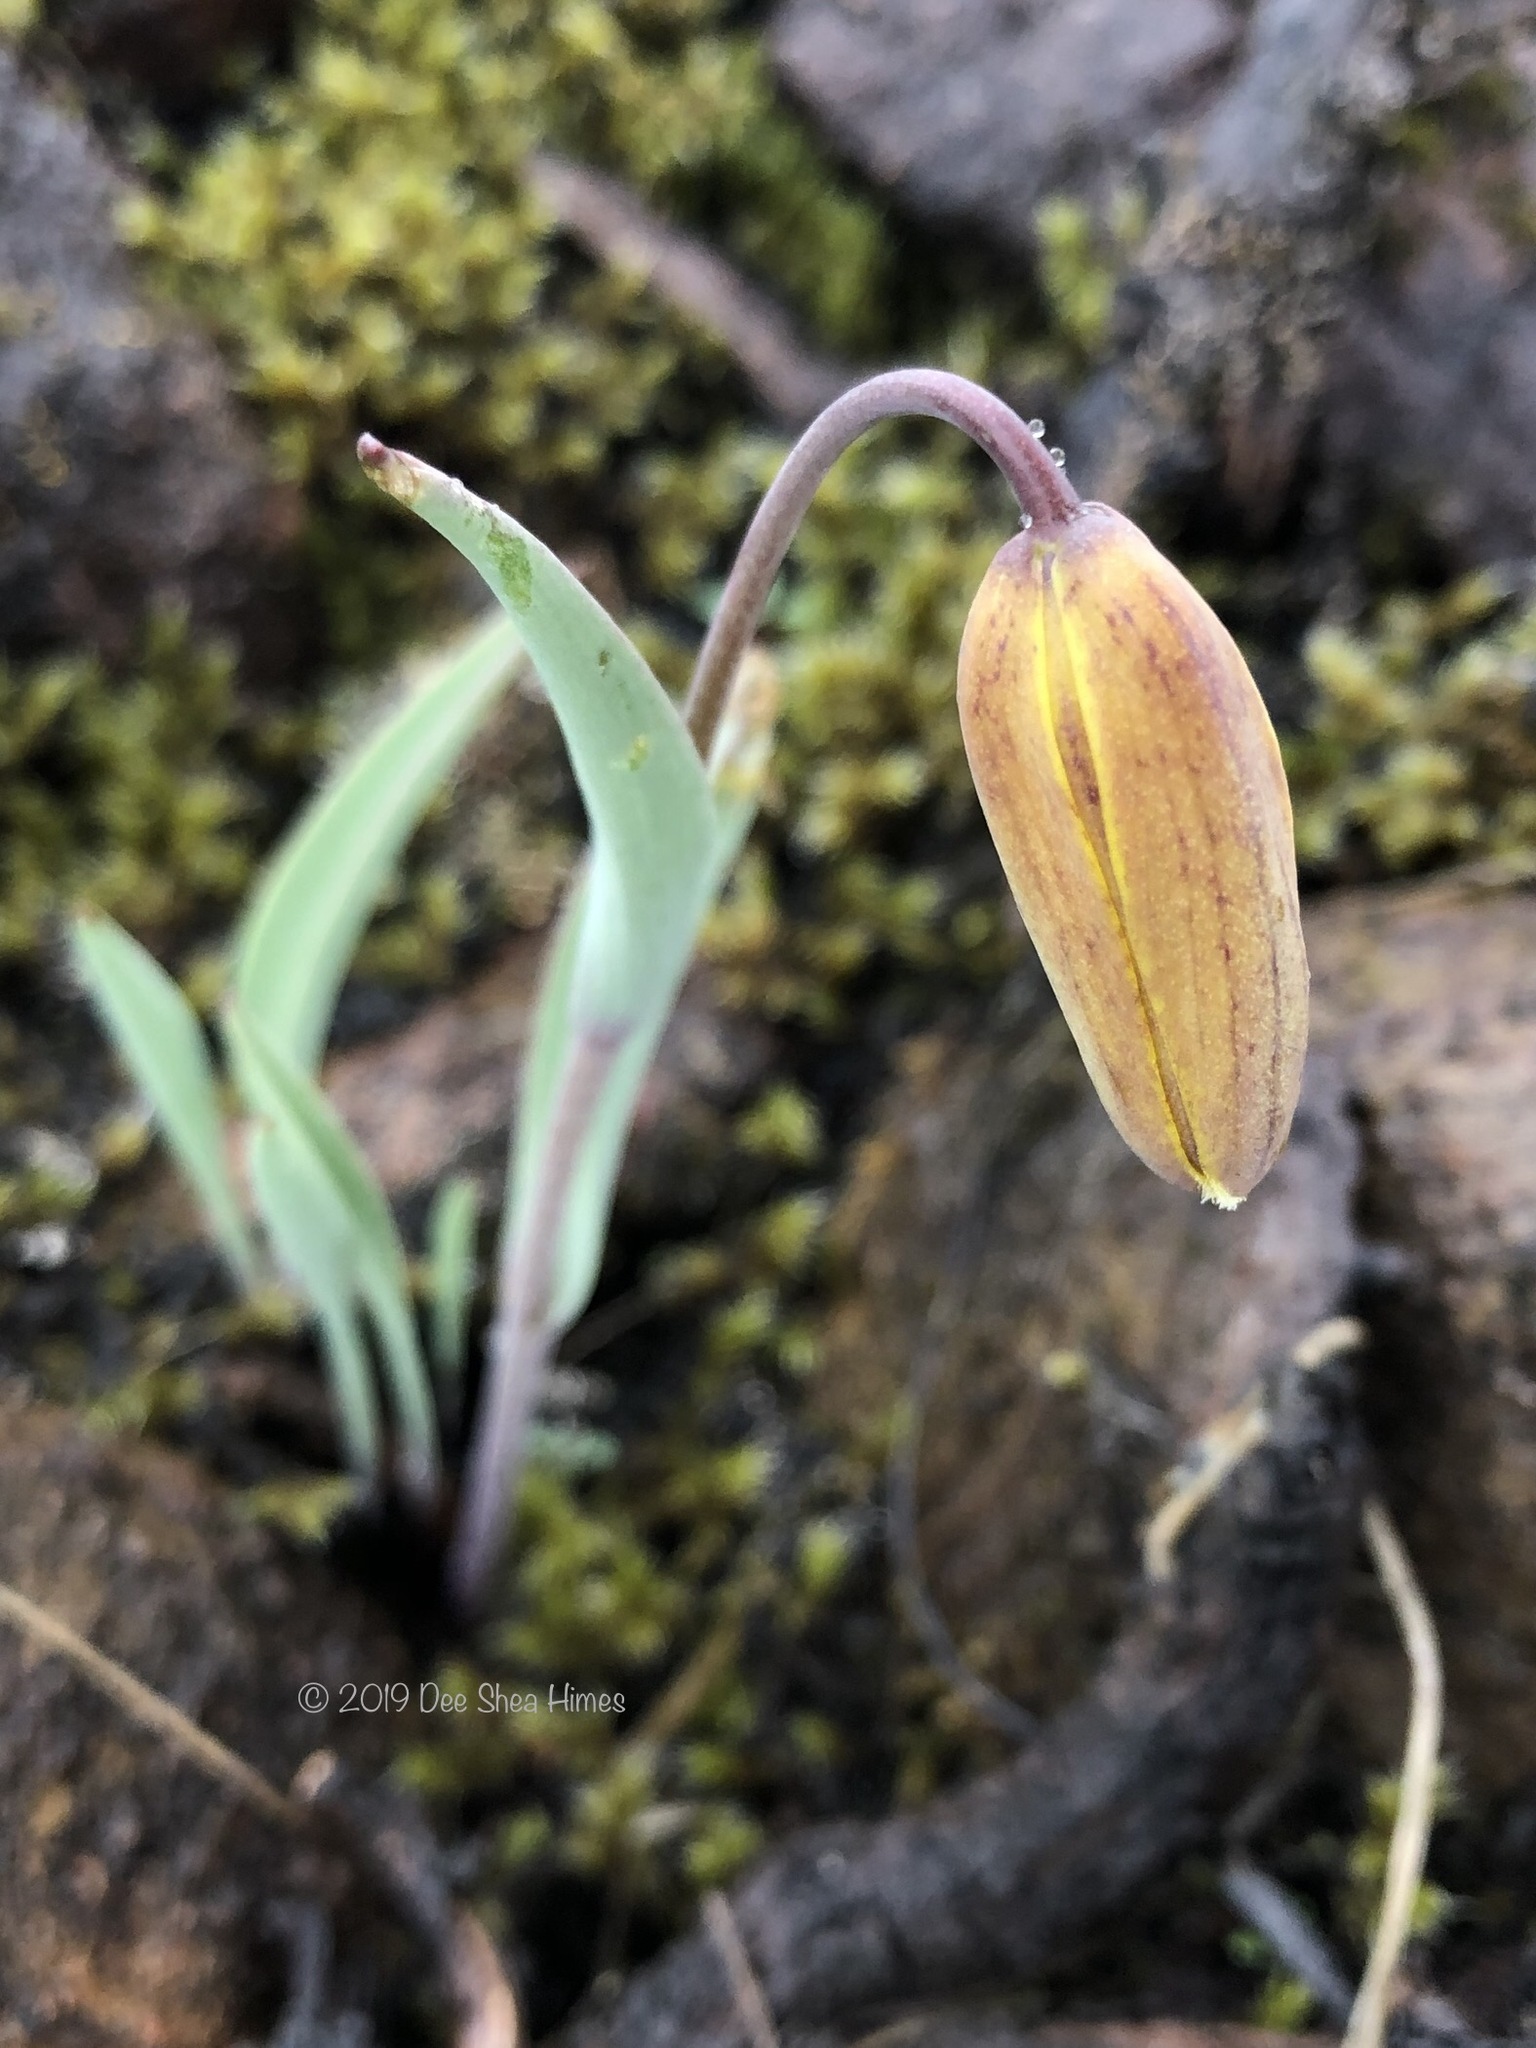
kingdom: Plantae
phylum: Tracheophyta
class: Liliopsida
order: Liliales
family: Liliaceae
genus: Fritillaria
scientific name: Fritillaria glauca
